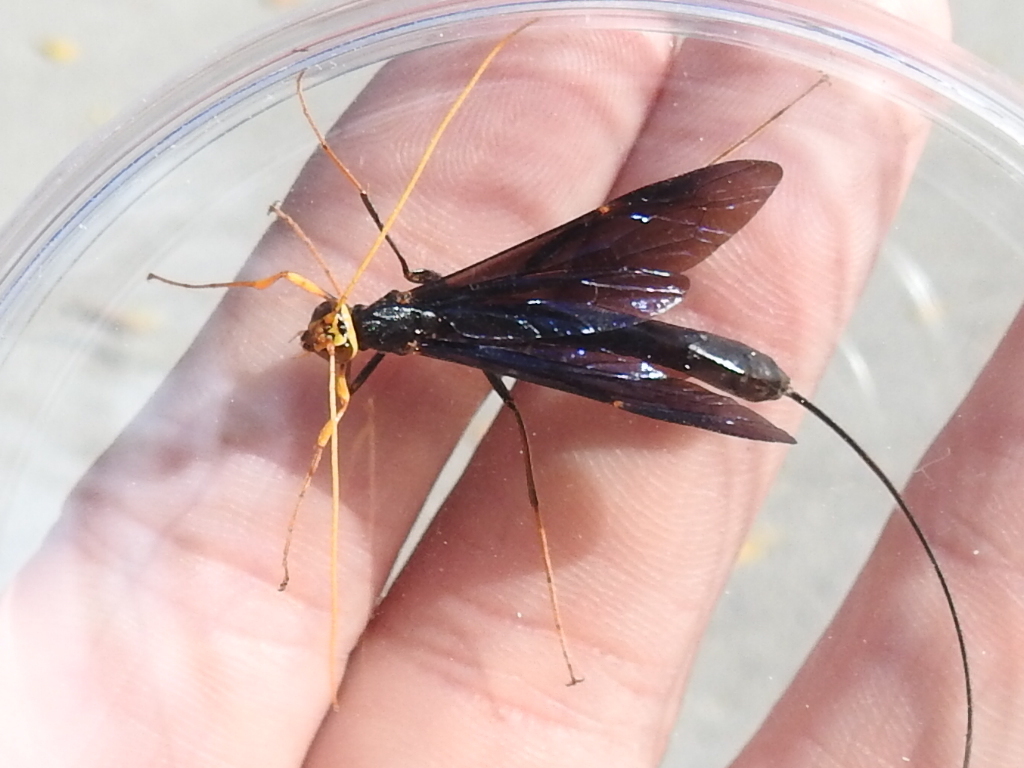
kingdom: Animalia
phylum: Arthropoda
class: Insecta
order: Hymenoptera
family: Ichneumonidae
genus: Megarhyssa
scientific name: Megarhyssa atrata
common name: Black giant ichneumonid wasp
